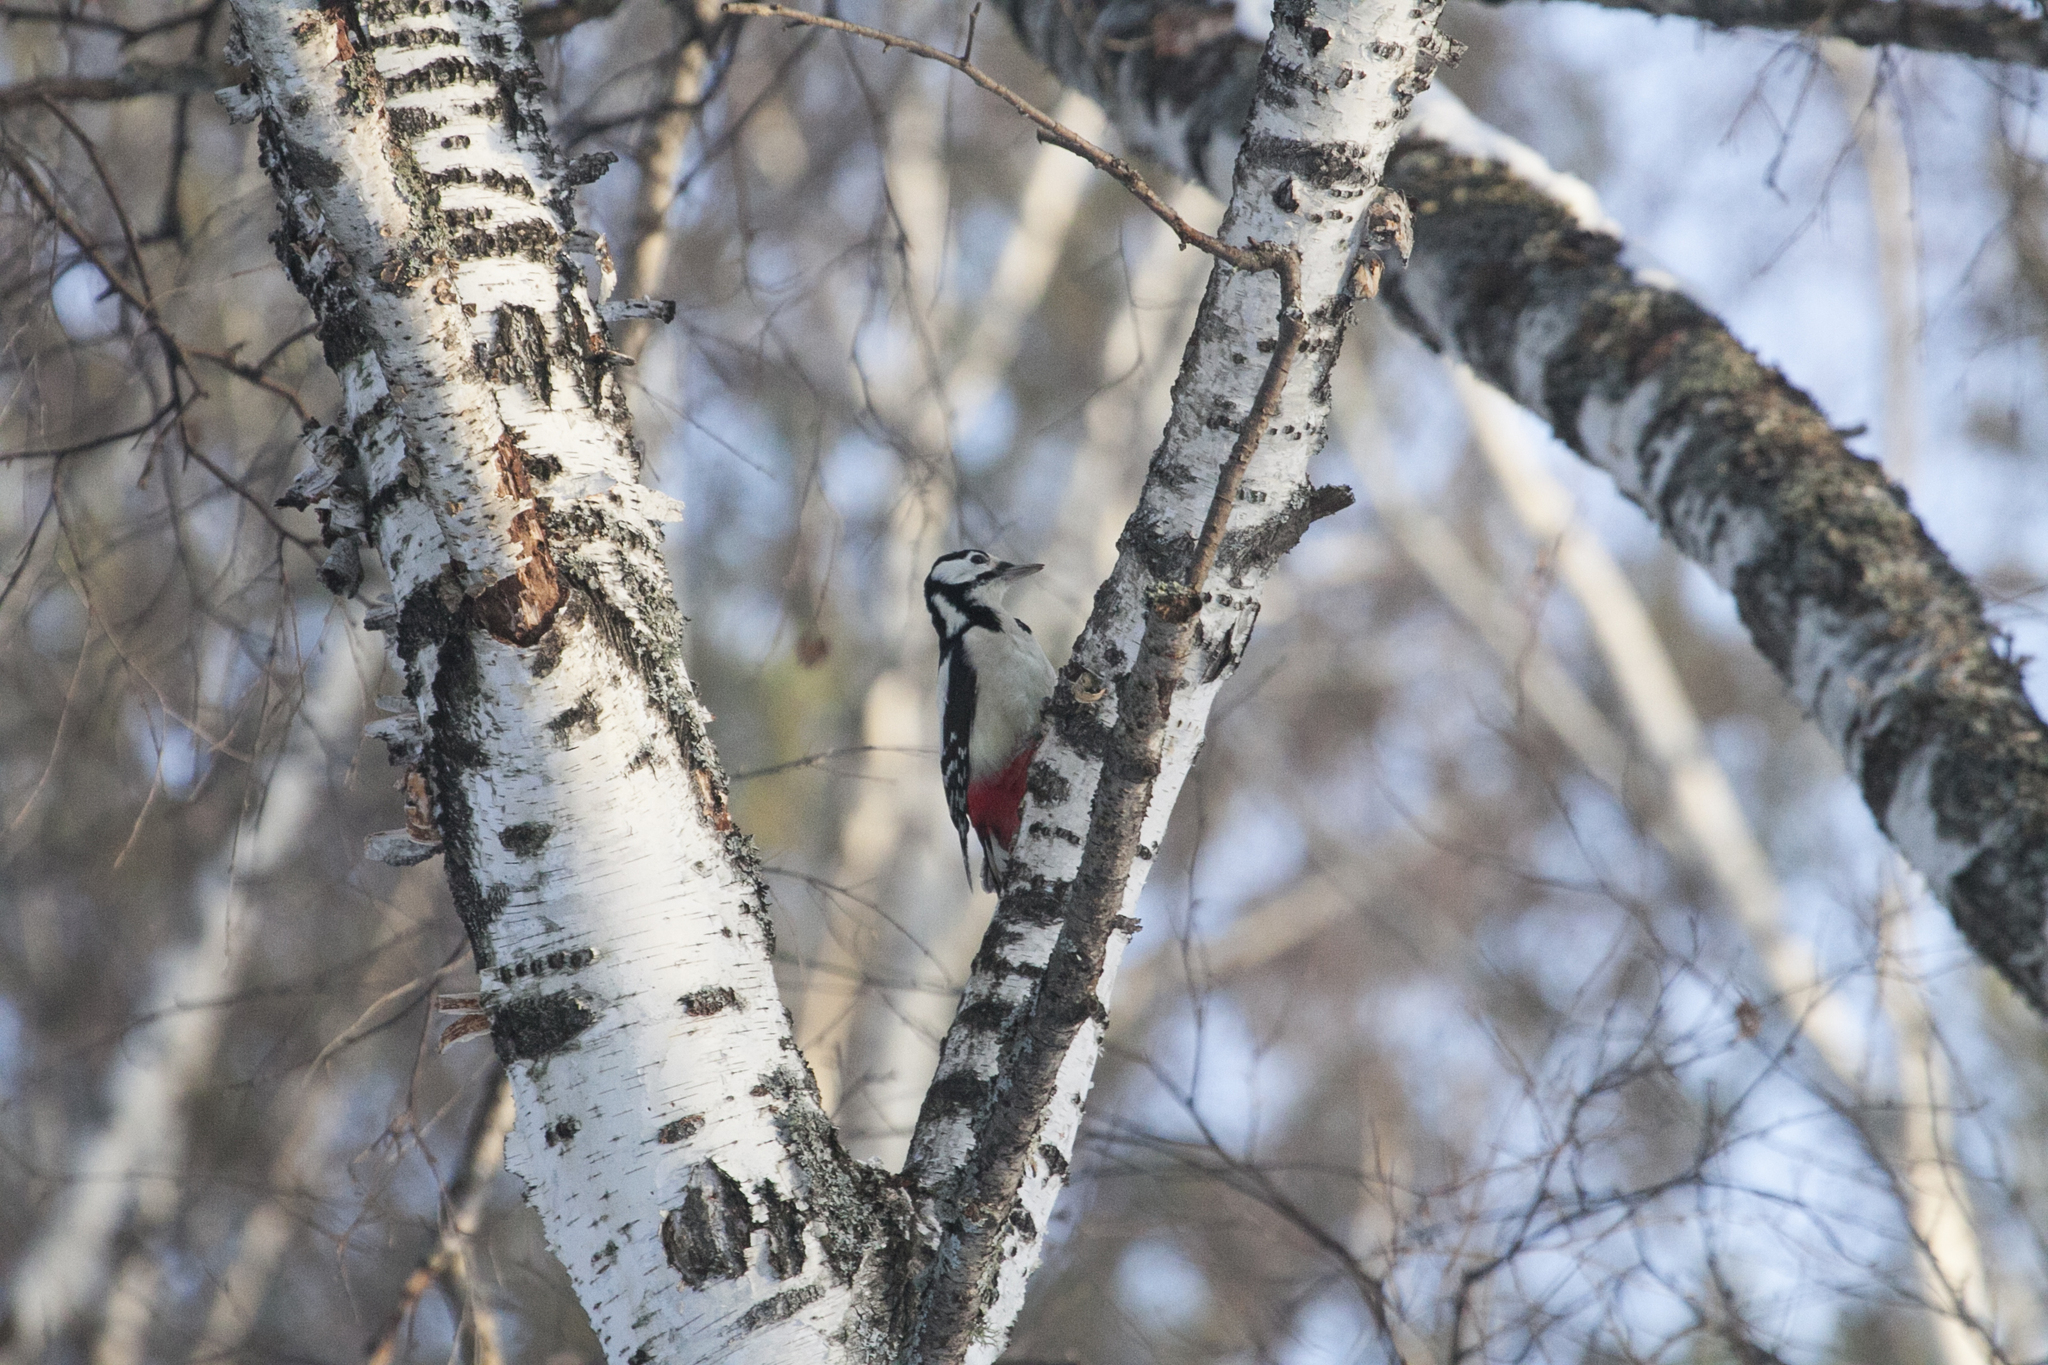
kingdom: Animalia
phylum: Chordata
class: Aves
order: Piciformes
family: Picidae
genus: Dendrocopos
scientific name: Dendrocopos major
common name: Great spotted woodpecker
